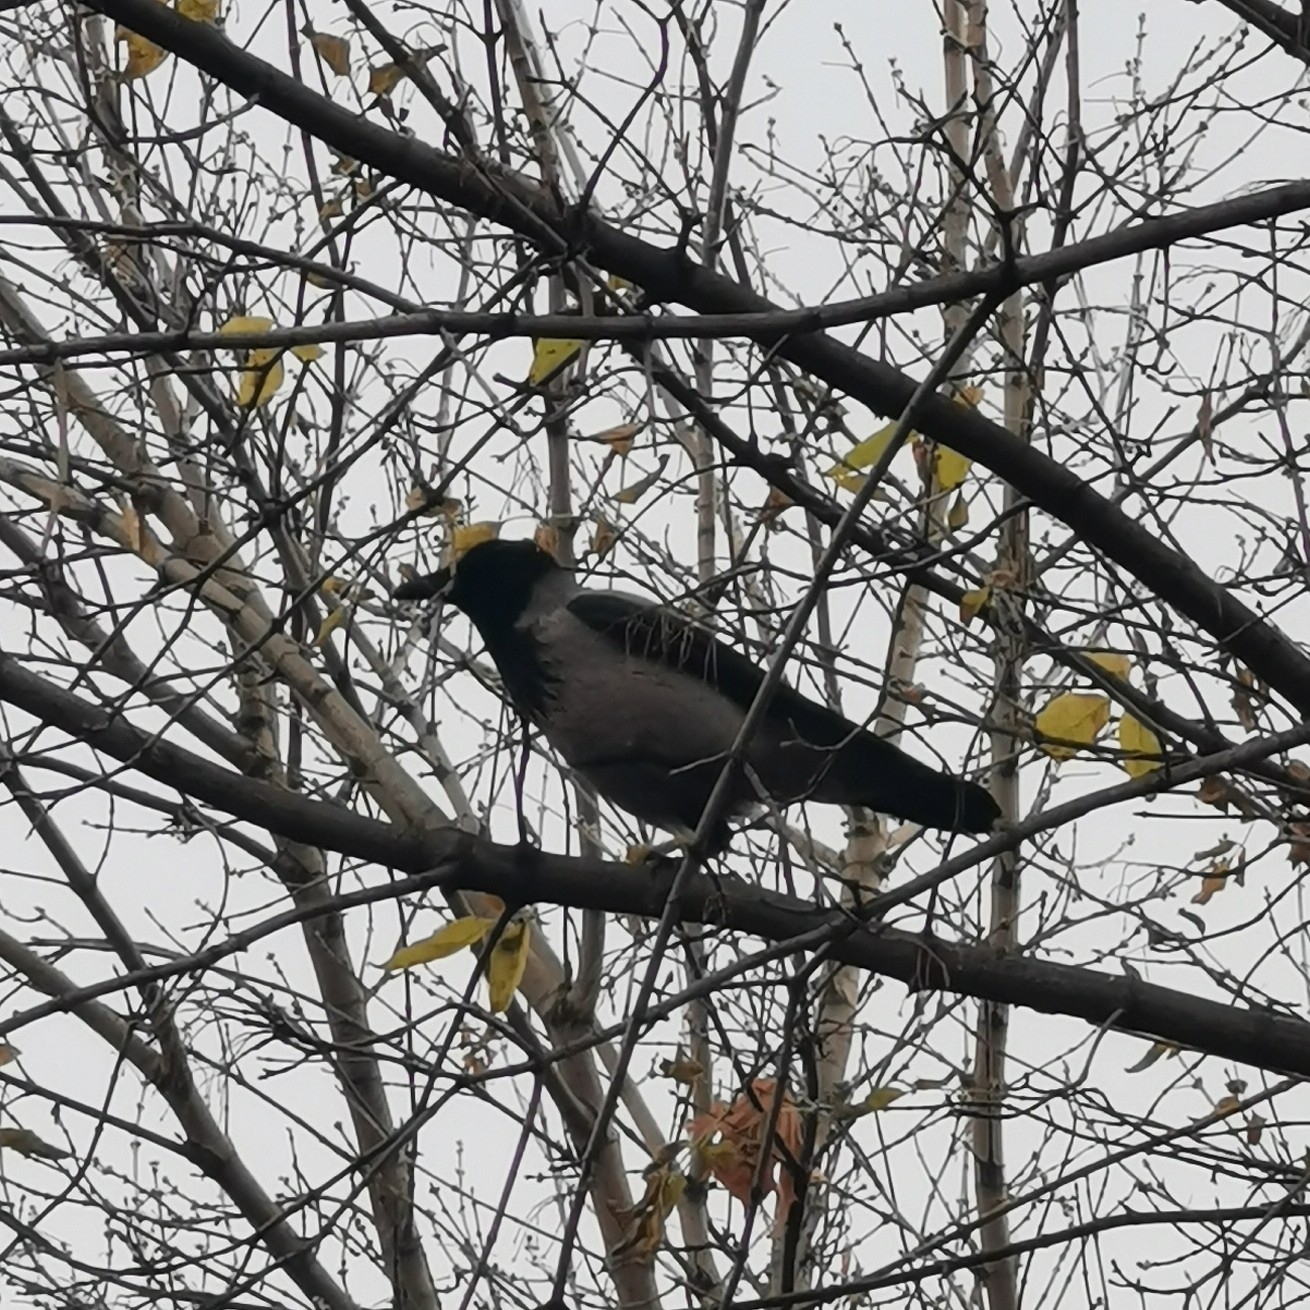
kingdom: Animalia
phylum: Chordata
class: Aves
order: Passeriformes
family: Corvidae
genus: Corvus
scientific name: Corvus cornix
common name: Hooded crow
